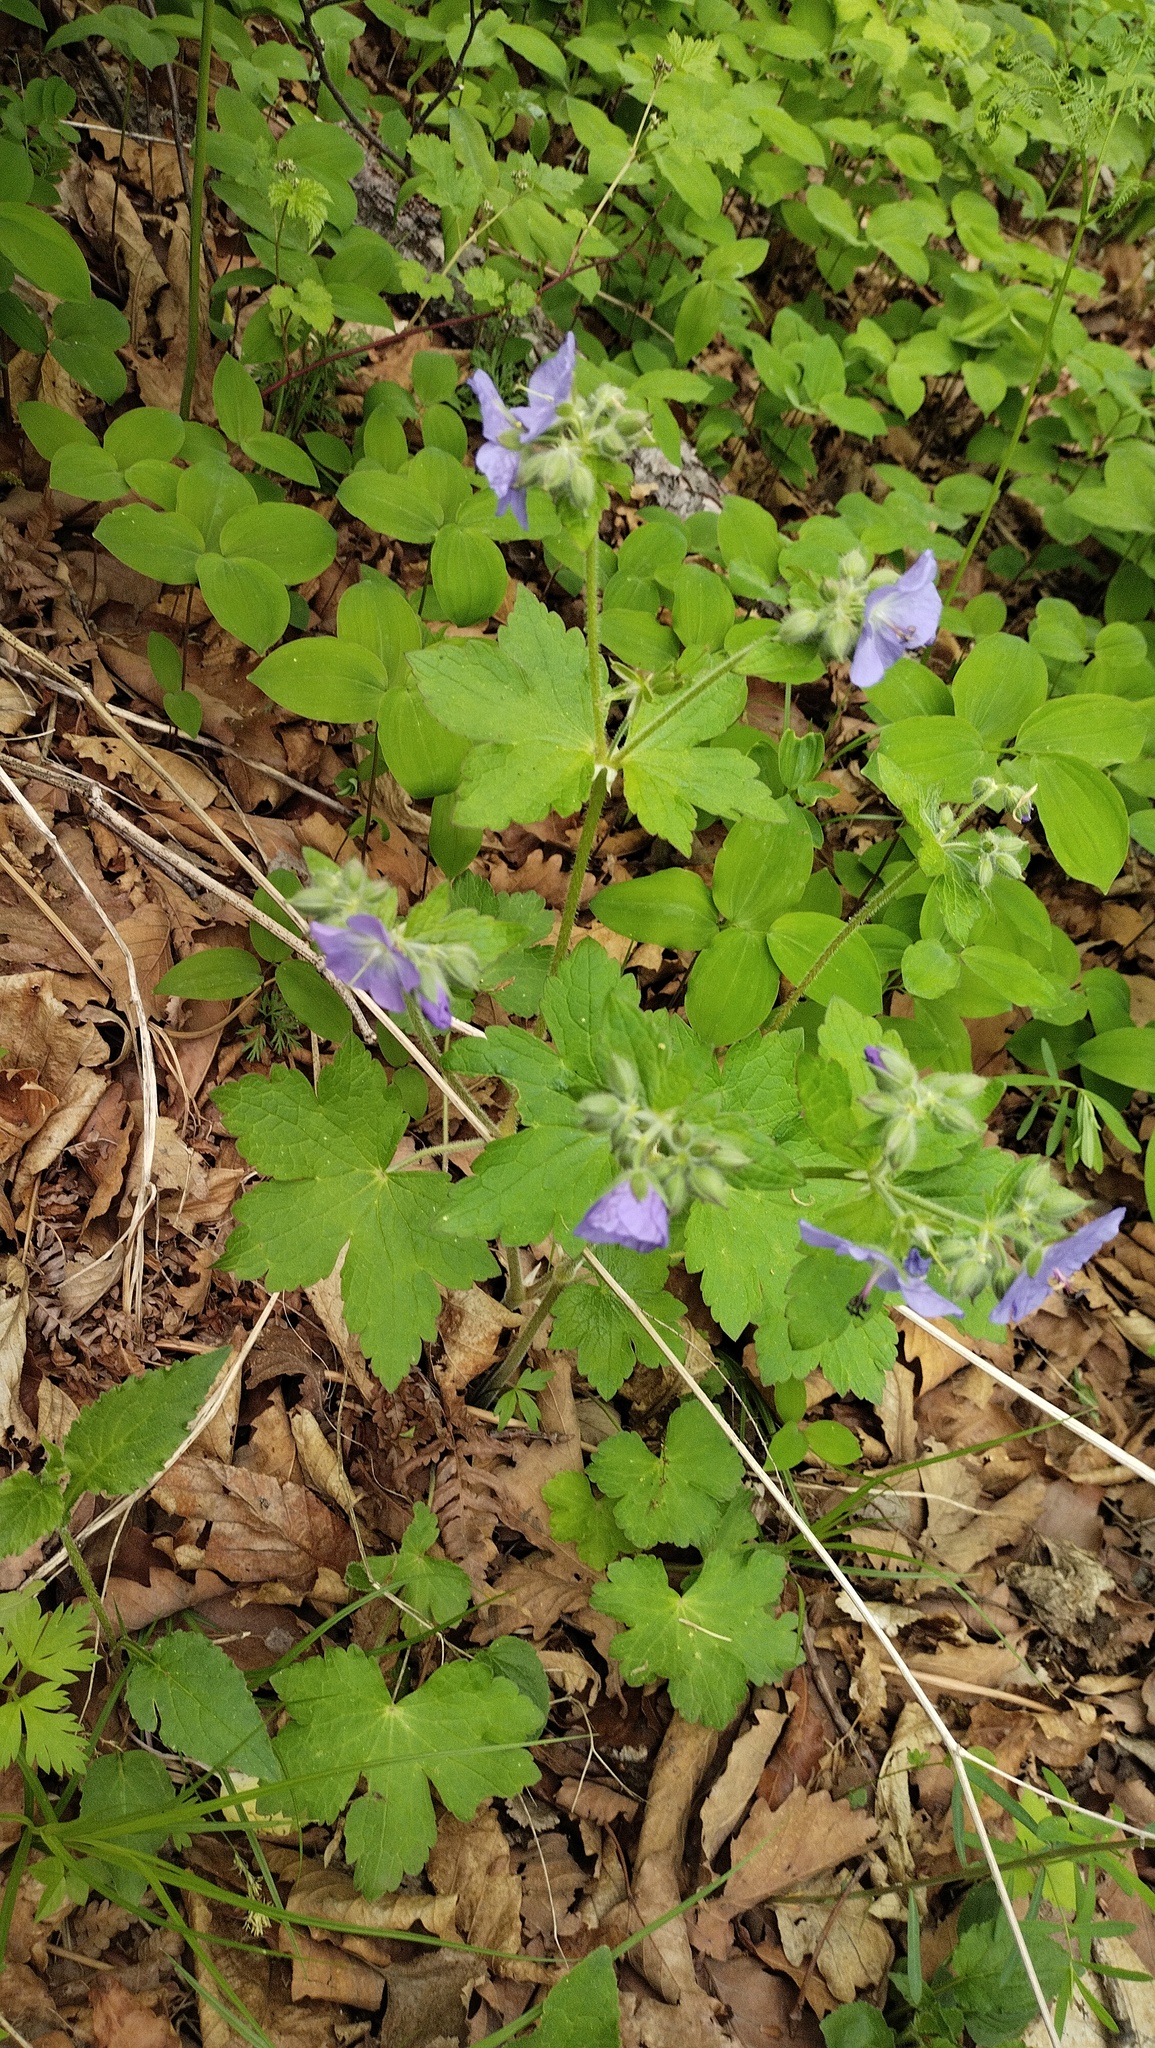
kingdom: Plantae
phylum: Tracheophyta
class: Magnoliopsida
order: Geraniales
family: Geraniaceae
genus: Geranium
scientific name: Geranium platyanthum
